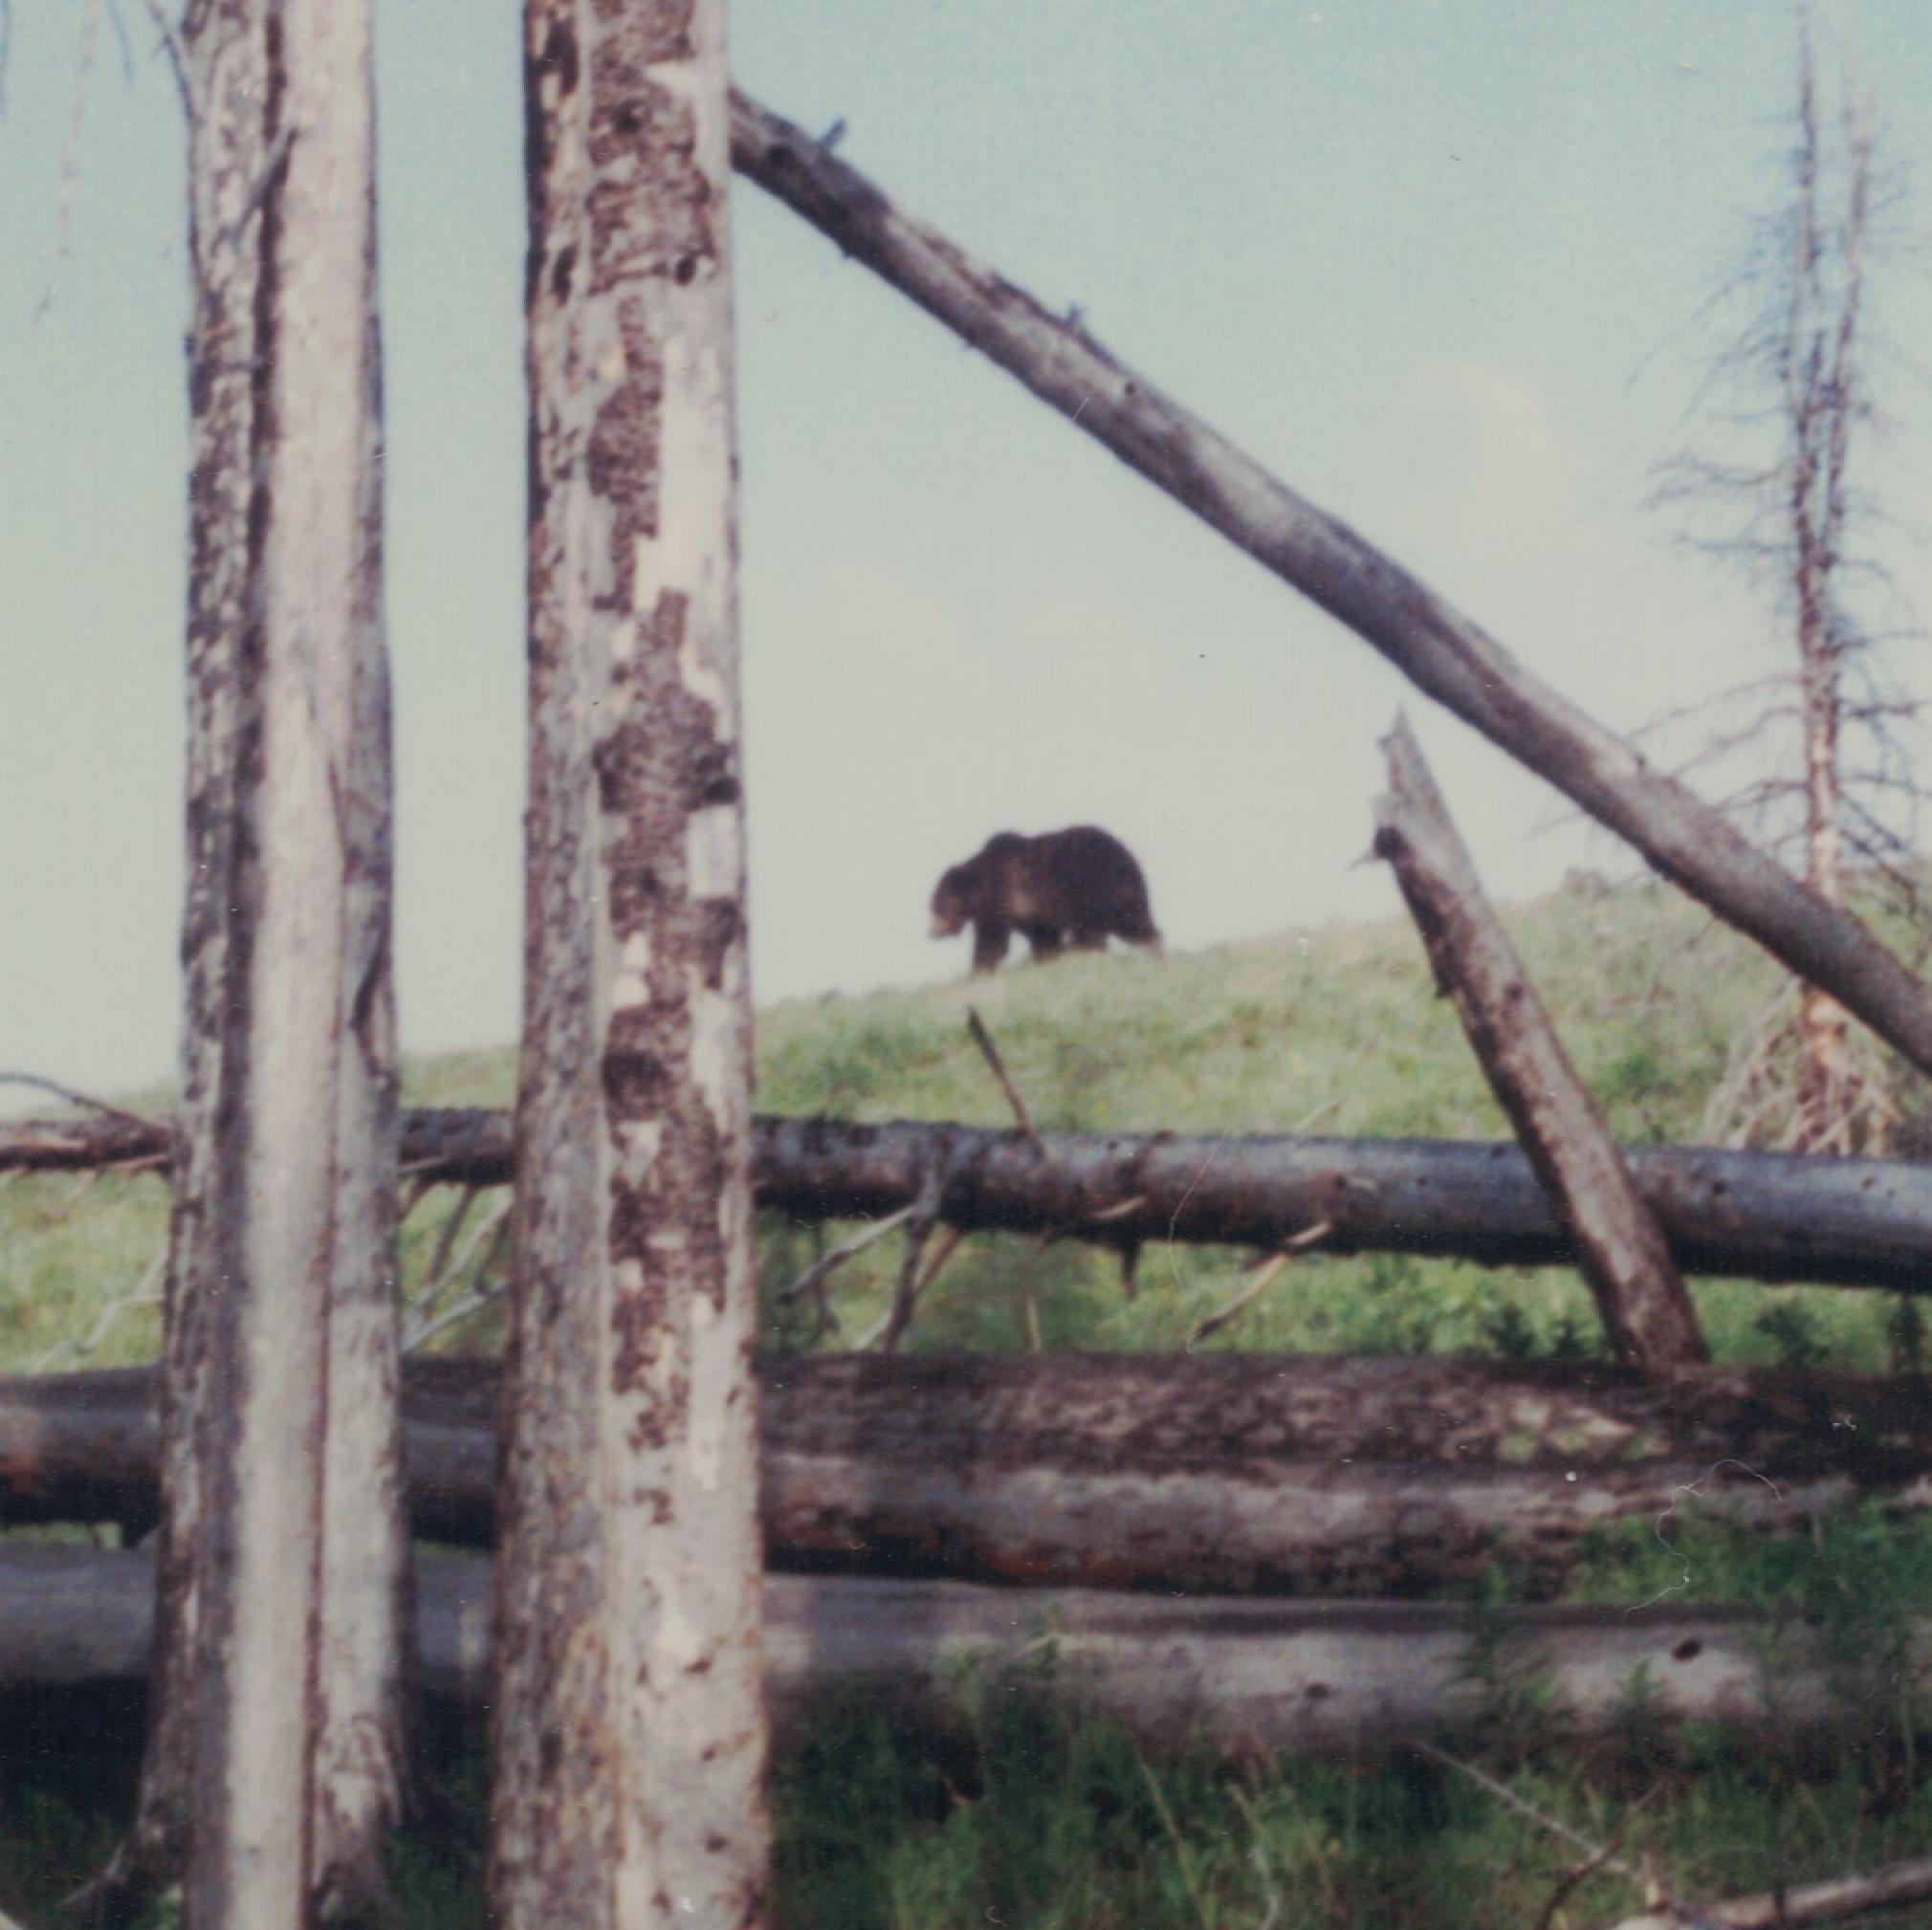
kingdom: Animalia
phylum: Chordata
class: Mammalia
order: Carnivora
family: Ursidae
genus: Ursus
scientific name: Ursus arctos
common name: Brown bear
